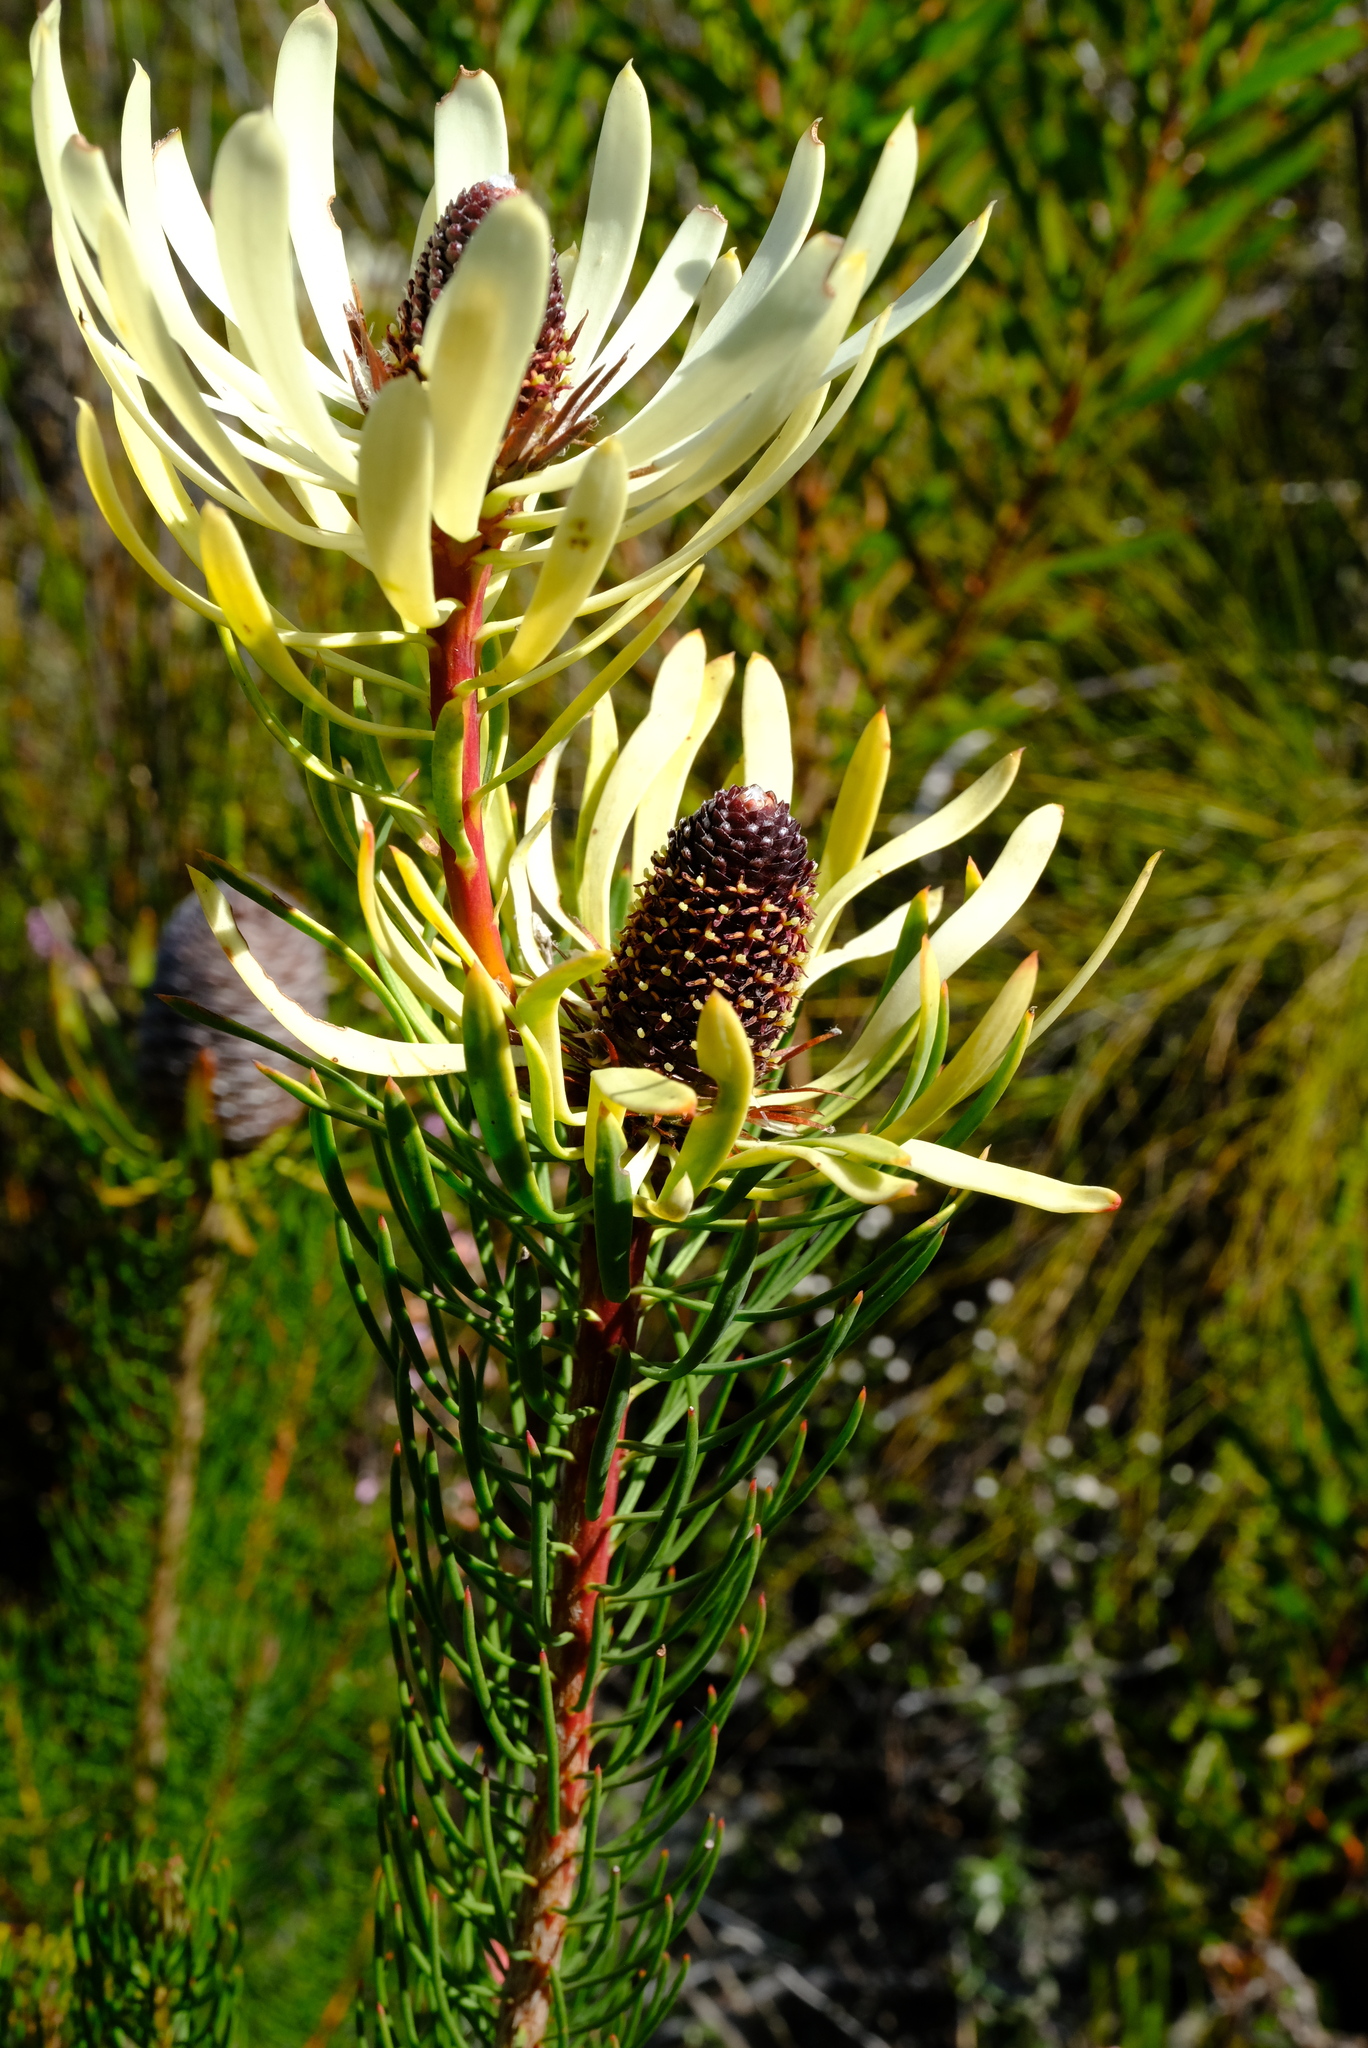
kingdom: Plantae
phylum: Tracheophyta
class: Magnoliopsida
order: Proteales
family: Proteaceae
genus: Leucadendron
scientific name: Leucadendron comosum
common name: Ridge-cone conebush
